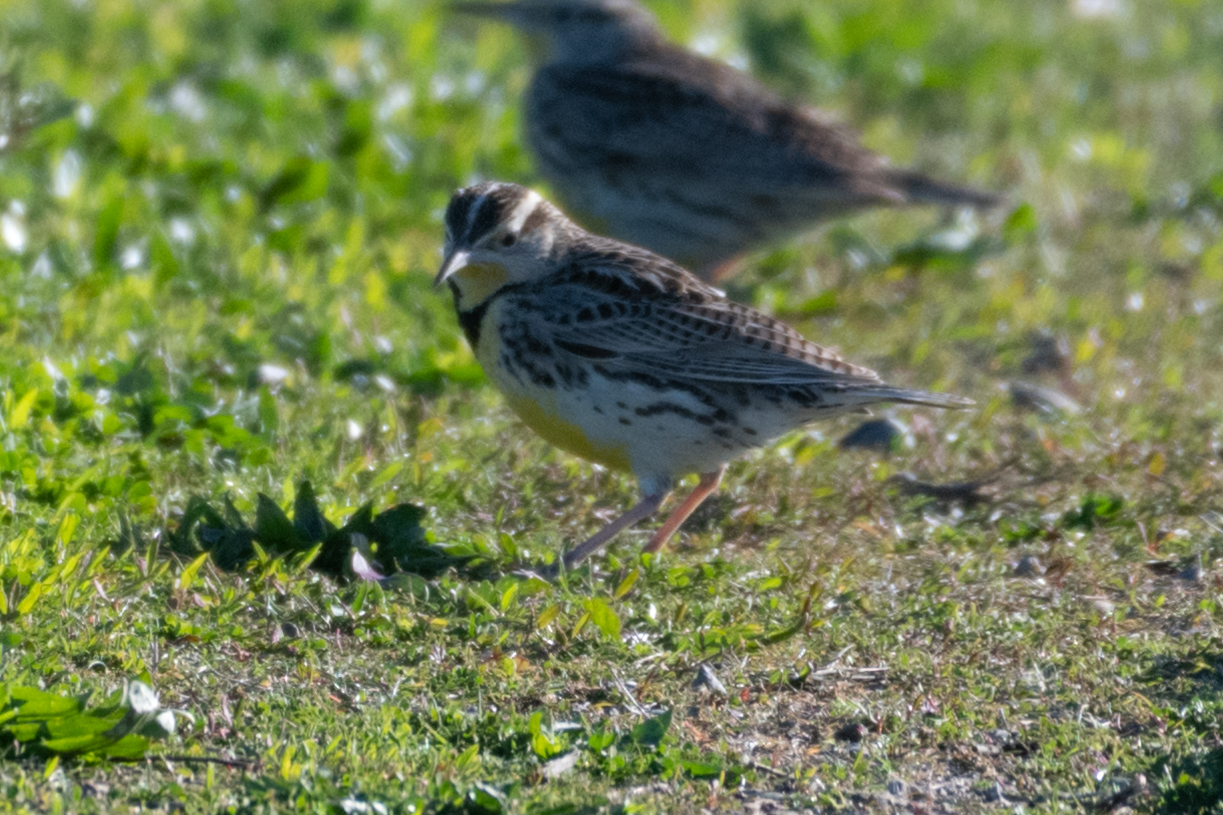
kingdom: Animalia
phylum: Chordata
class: Aves
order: Passeriformes
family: Icteridae
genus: Sturnella
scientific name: Sturnella neglecta
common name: Western meadowlark
